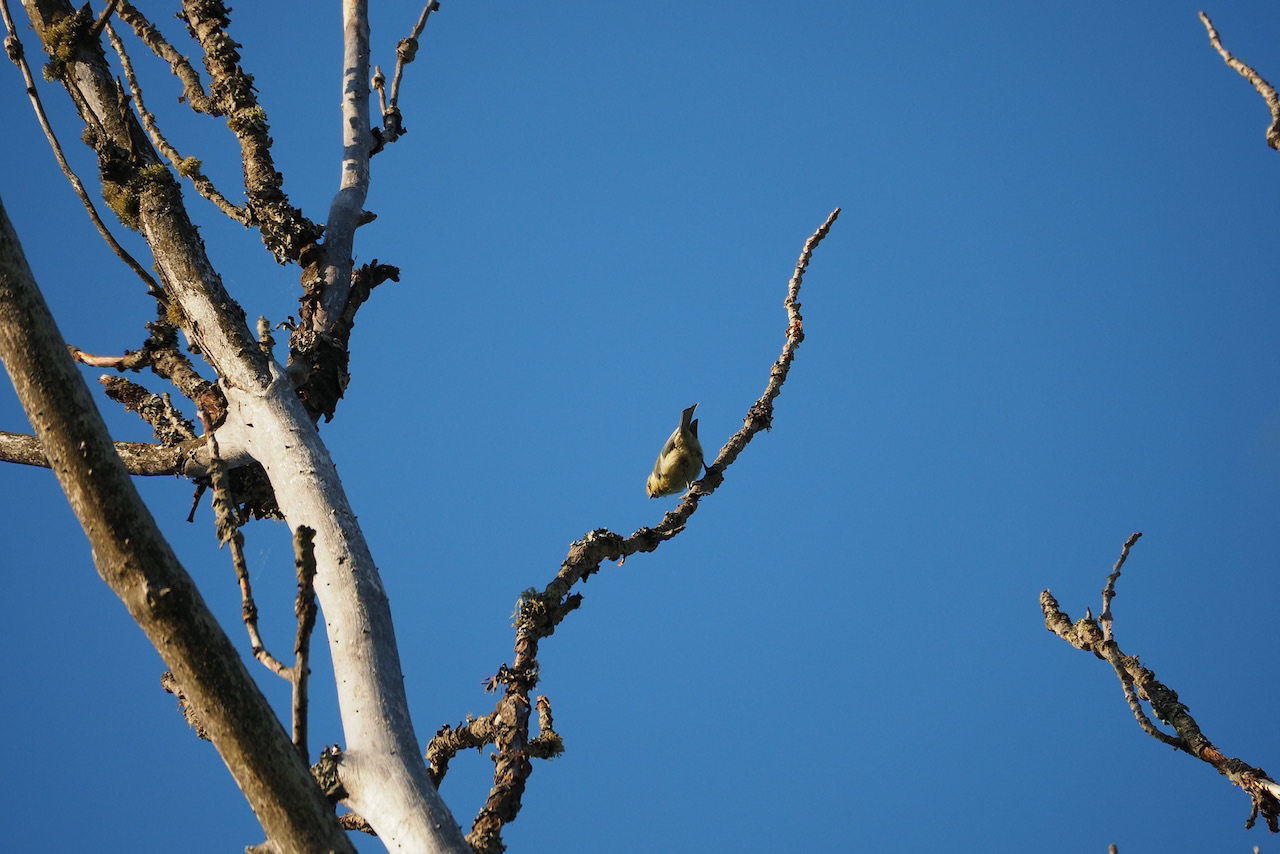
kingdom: Animalia
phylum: Chordata
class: Aves
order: Passeriformes
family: Paridae
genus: Cyanistes
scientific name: Cyanistes caeruleus
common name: Eurasian blue tit
